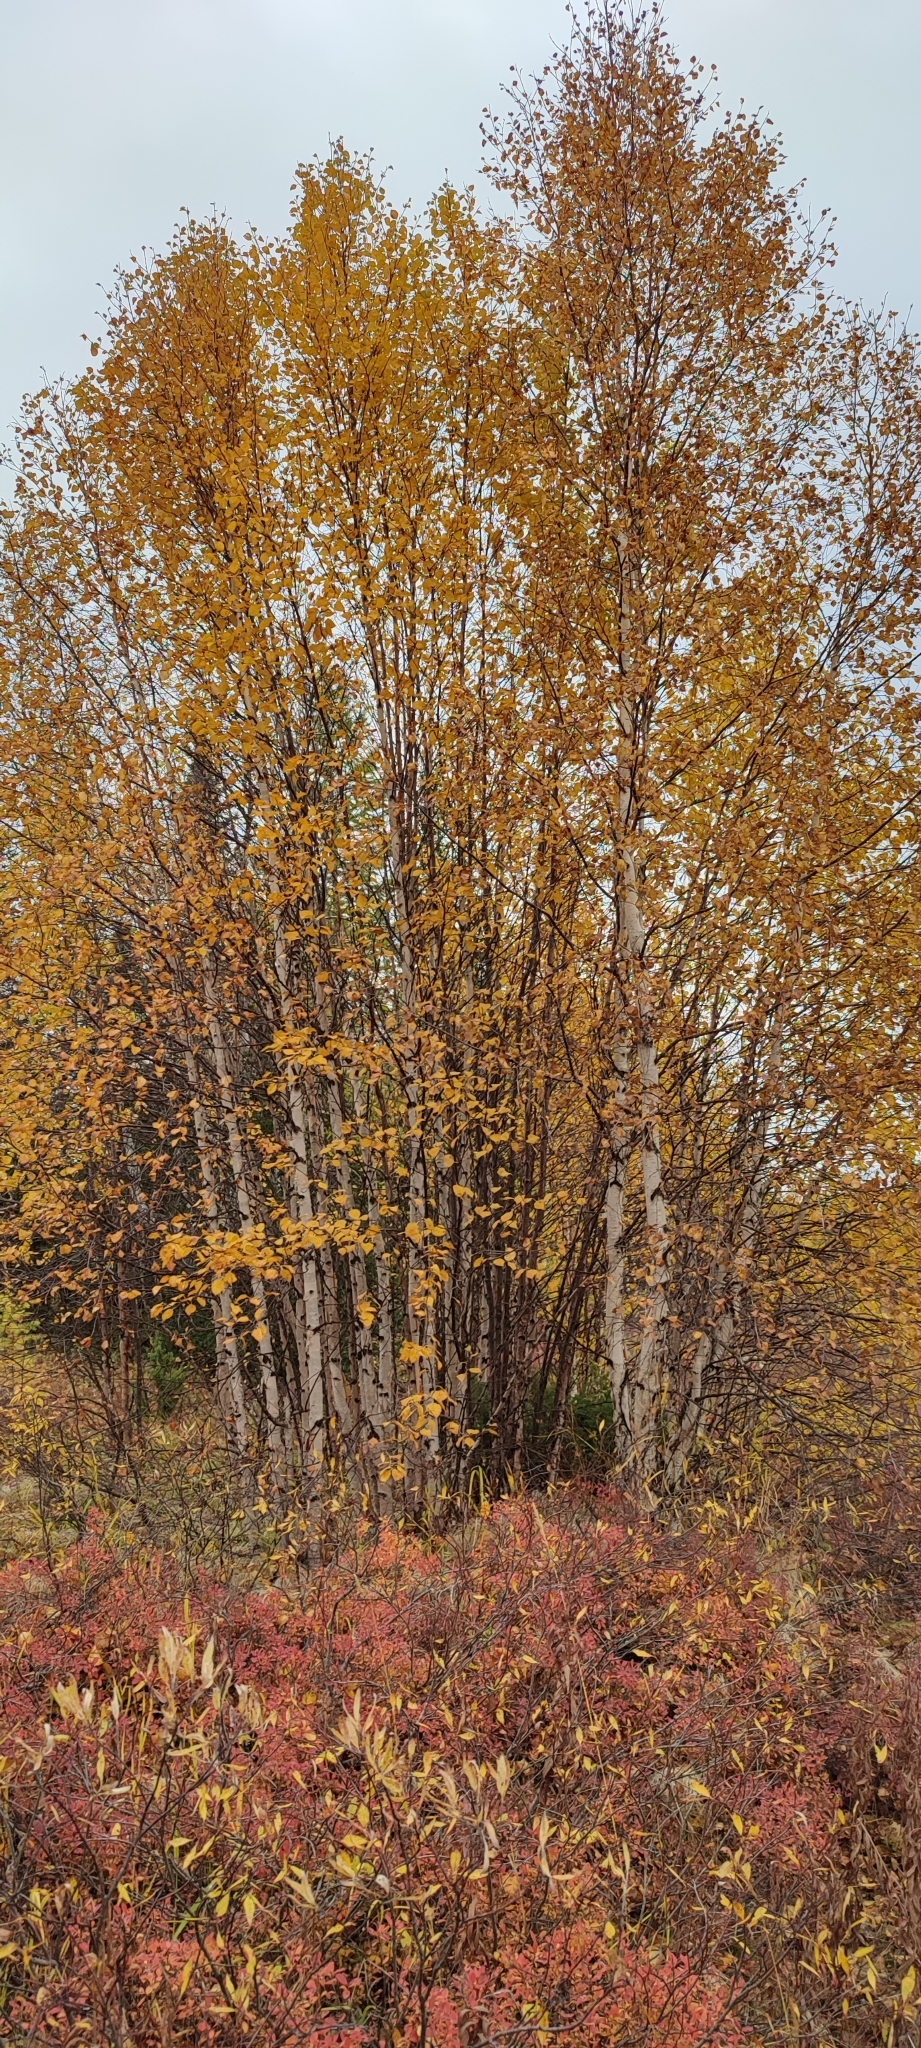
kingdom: Plantae
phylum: Tracheophyta
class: Magnoliopsida
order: Fagales
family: Betulaceae
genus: Betula
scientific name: Betula pubescens
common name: Downy birch
